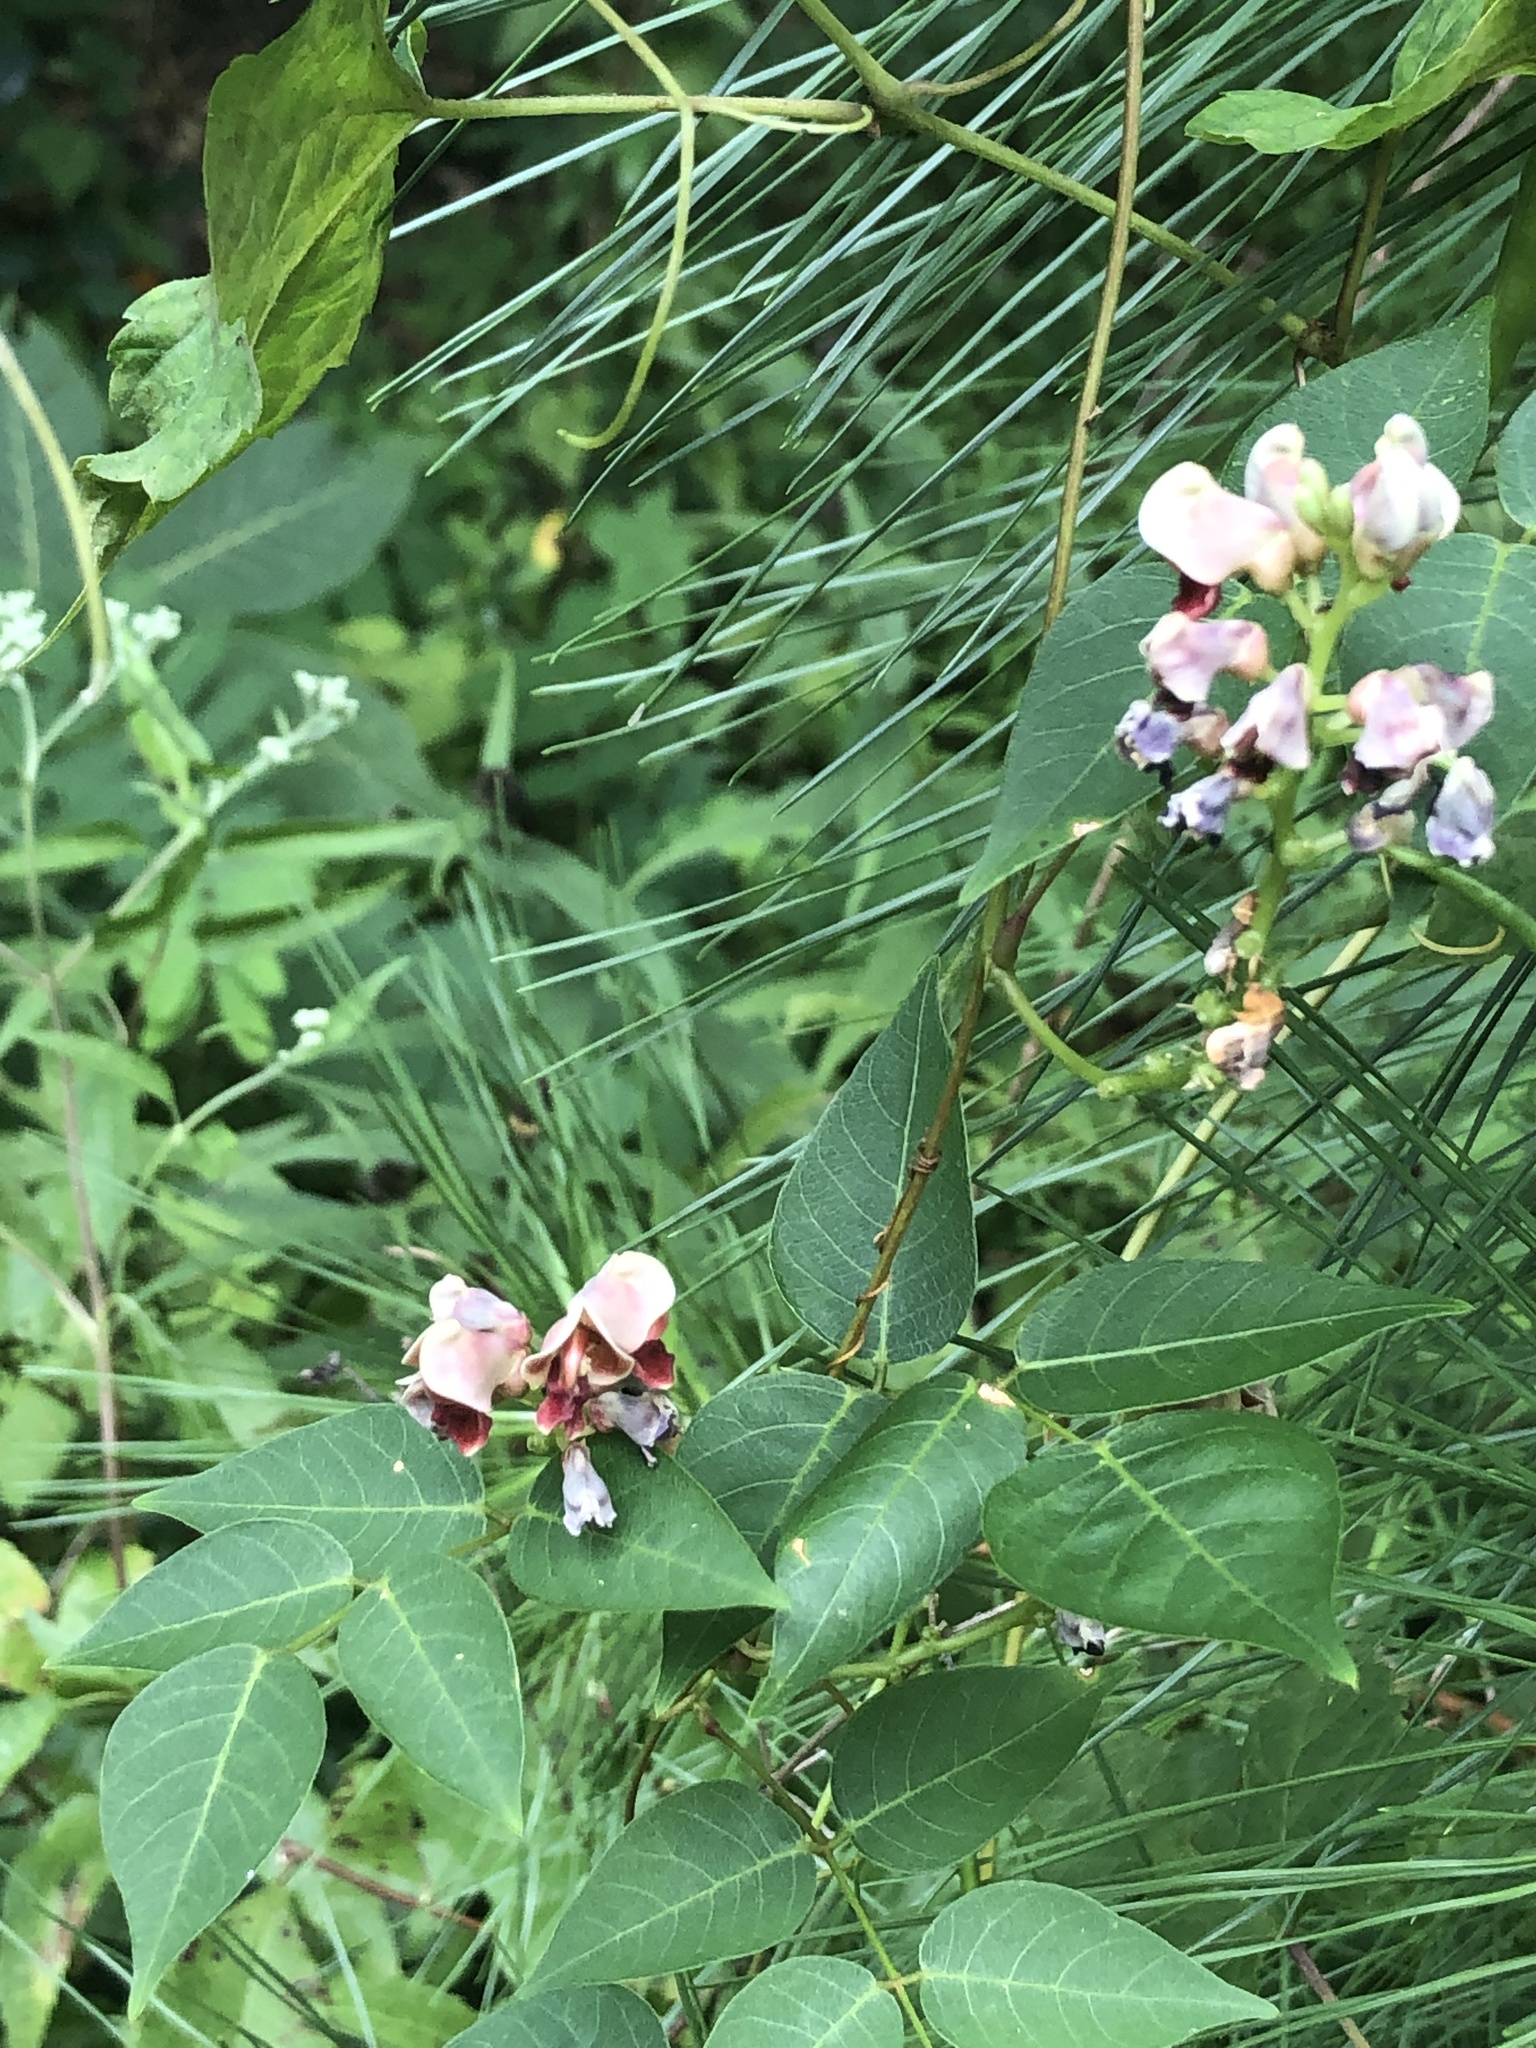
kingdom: Plantae
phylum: Tracheophyta
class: Magnoliopsida
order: Fabales
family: Fabaceae
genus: Apios
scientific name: Apios americana
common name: American potato-bean
